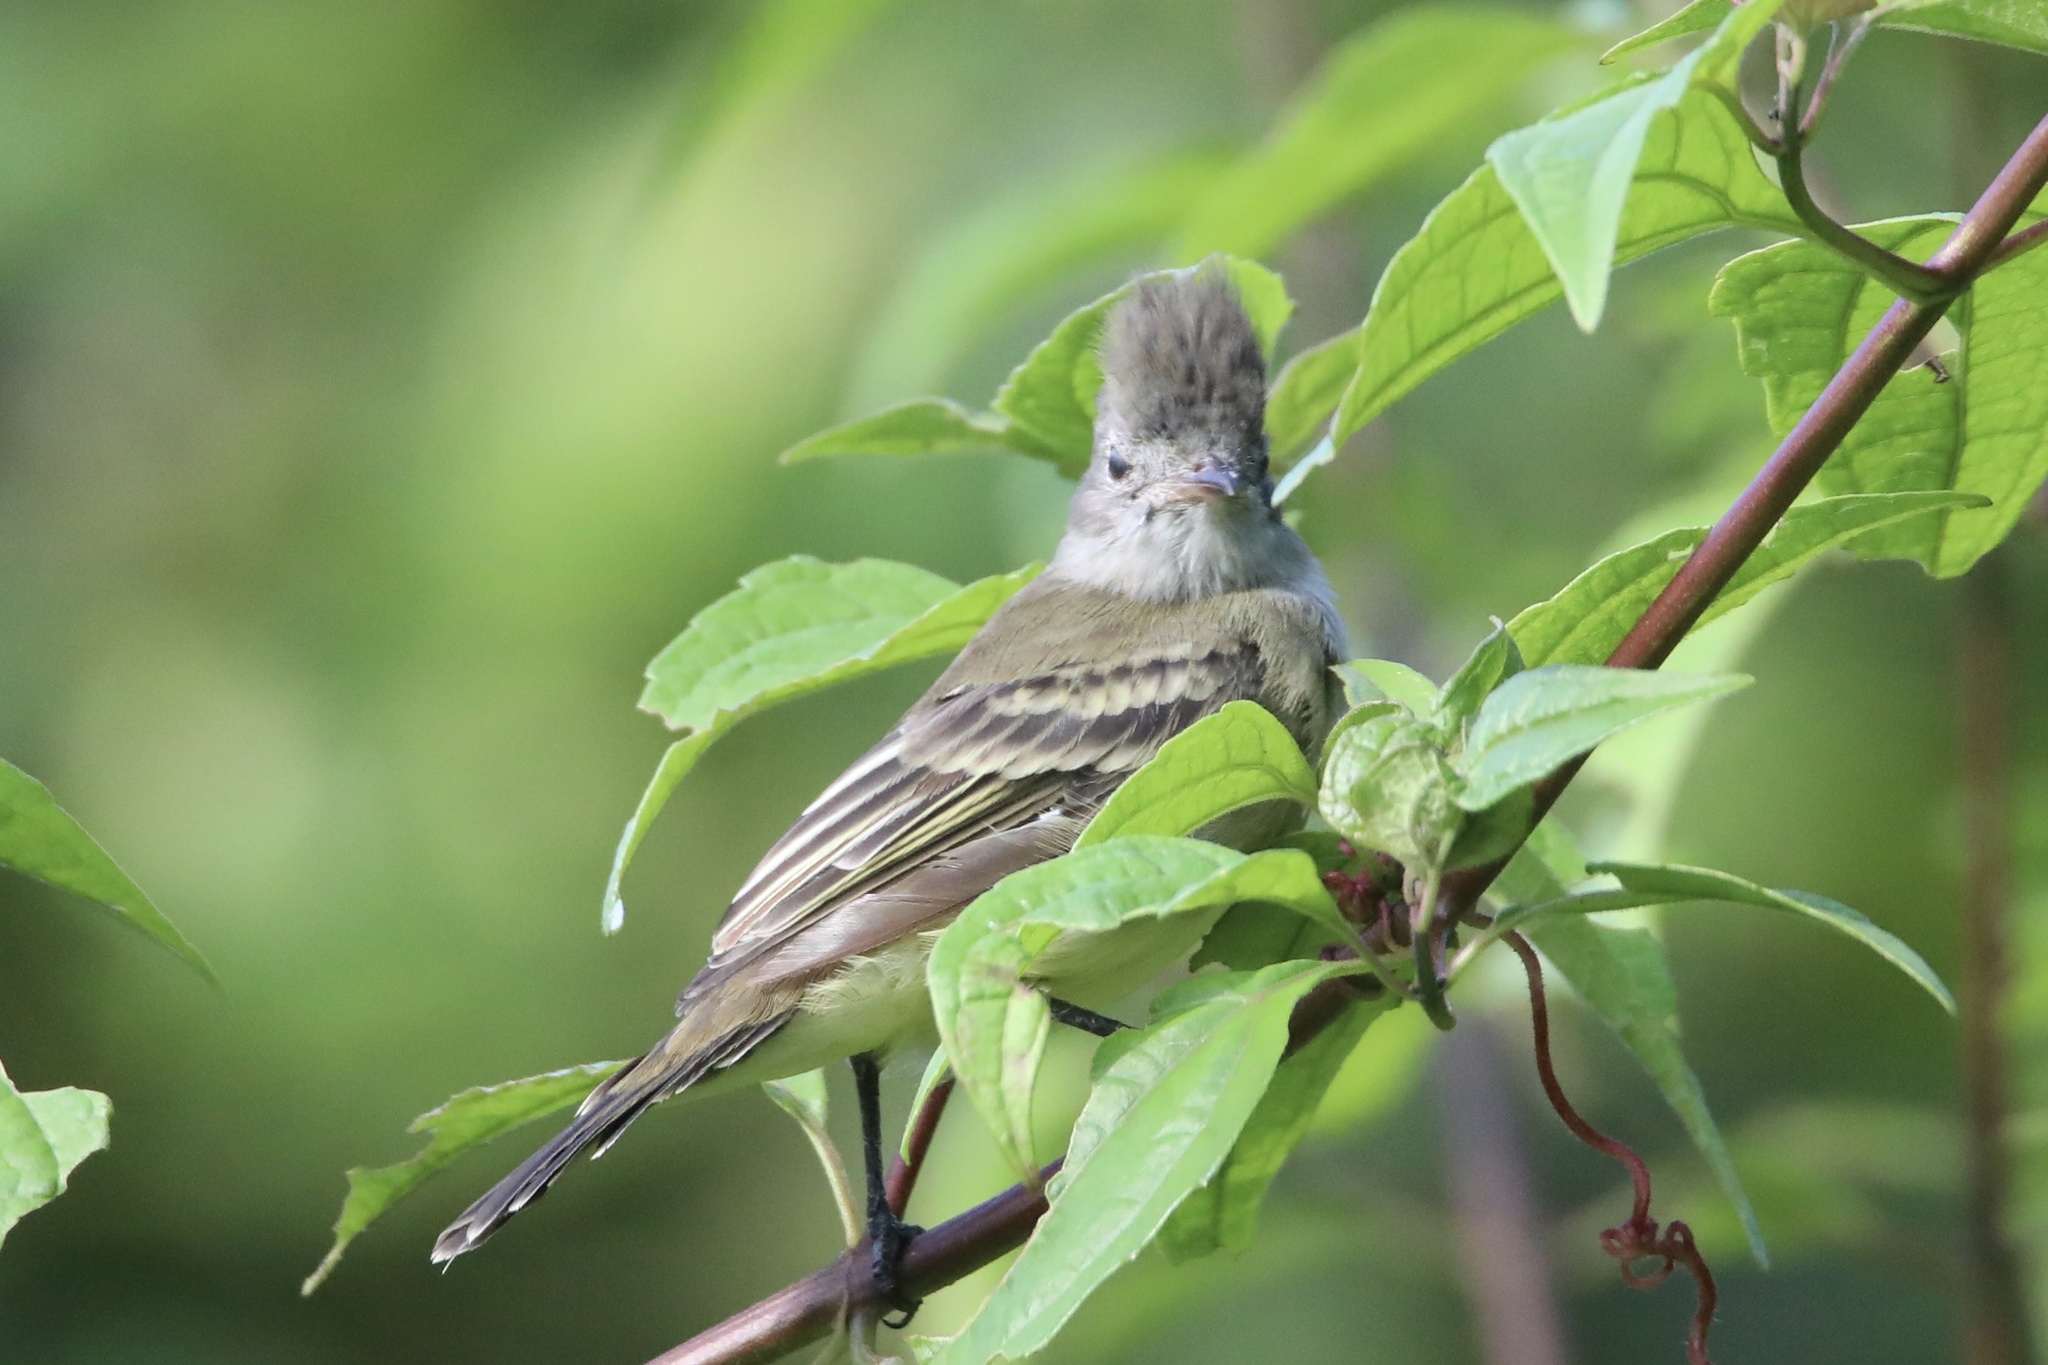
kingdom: Animalia
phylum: Chordata
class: Aves
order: Passeriformes
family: Tyrannidae
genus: Elaenia
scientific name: Elaenia flavogaster
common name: Yellow-bellied elaenia
